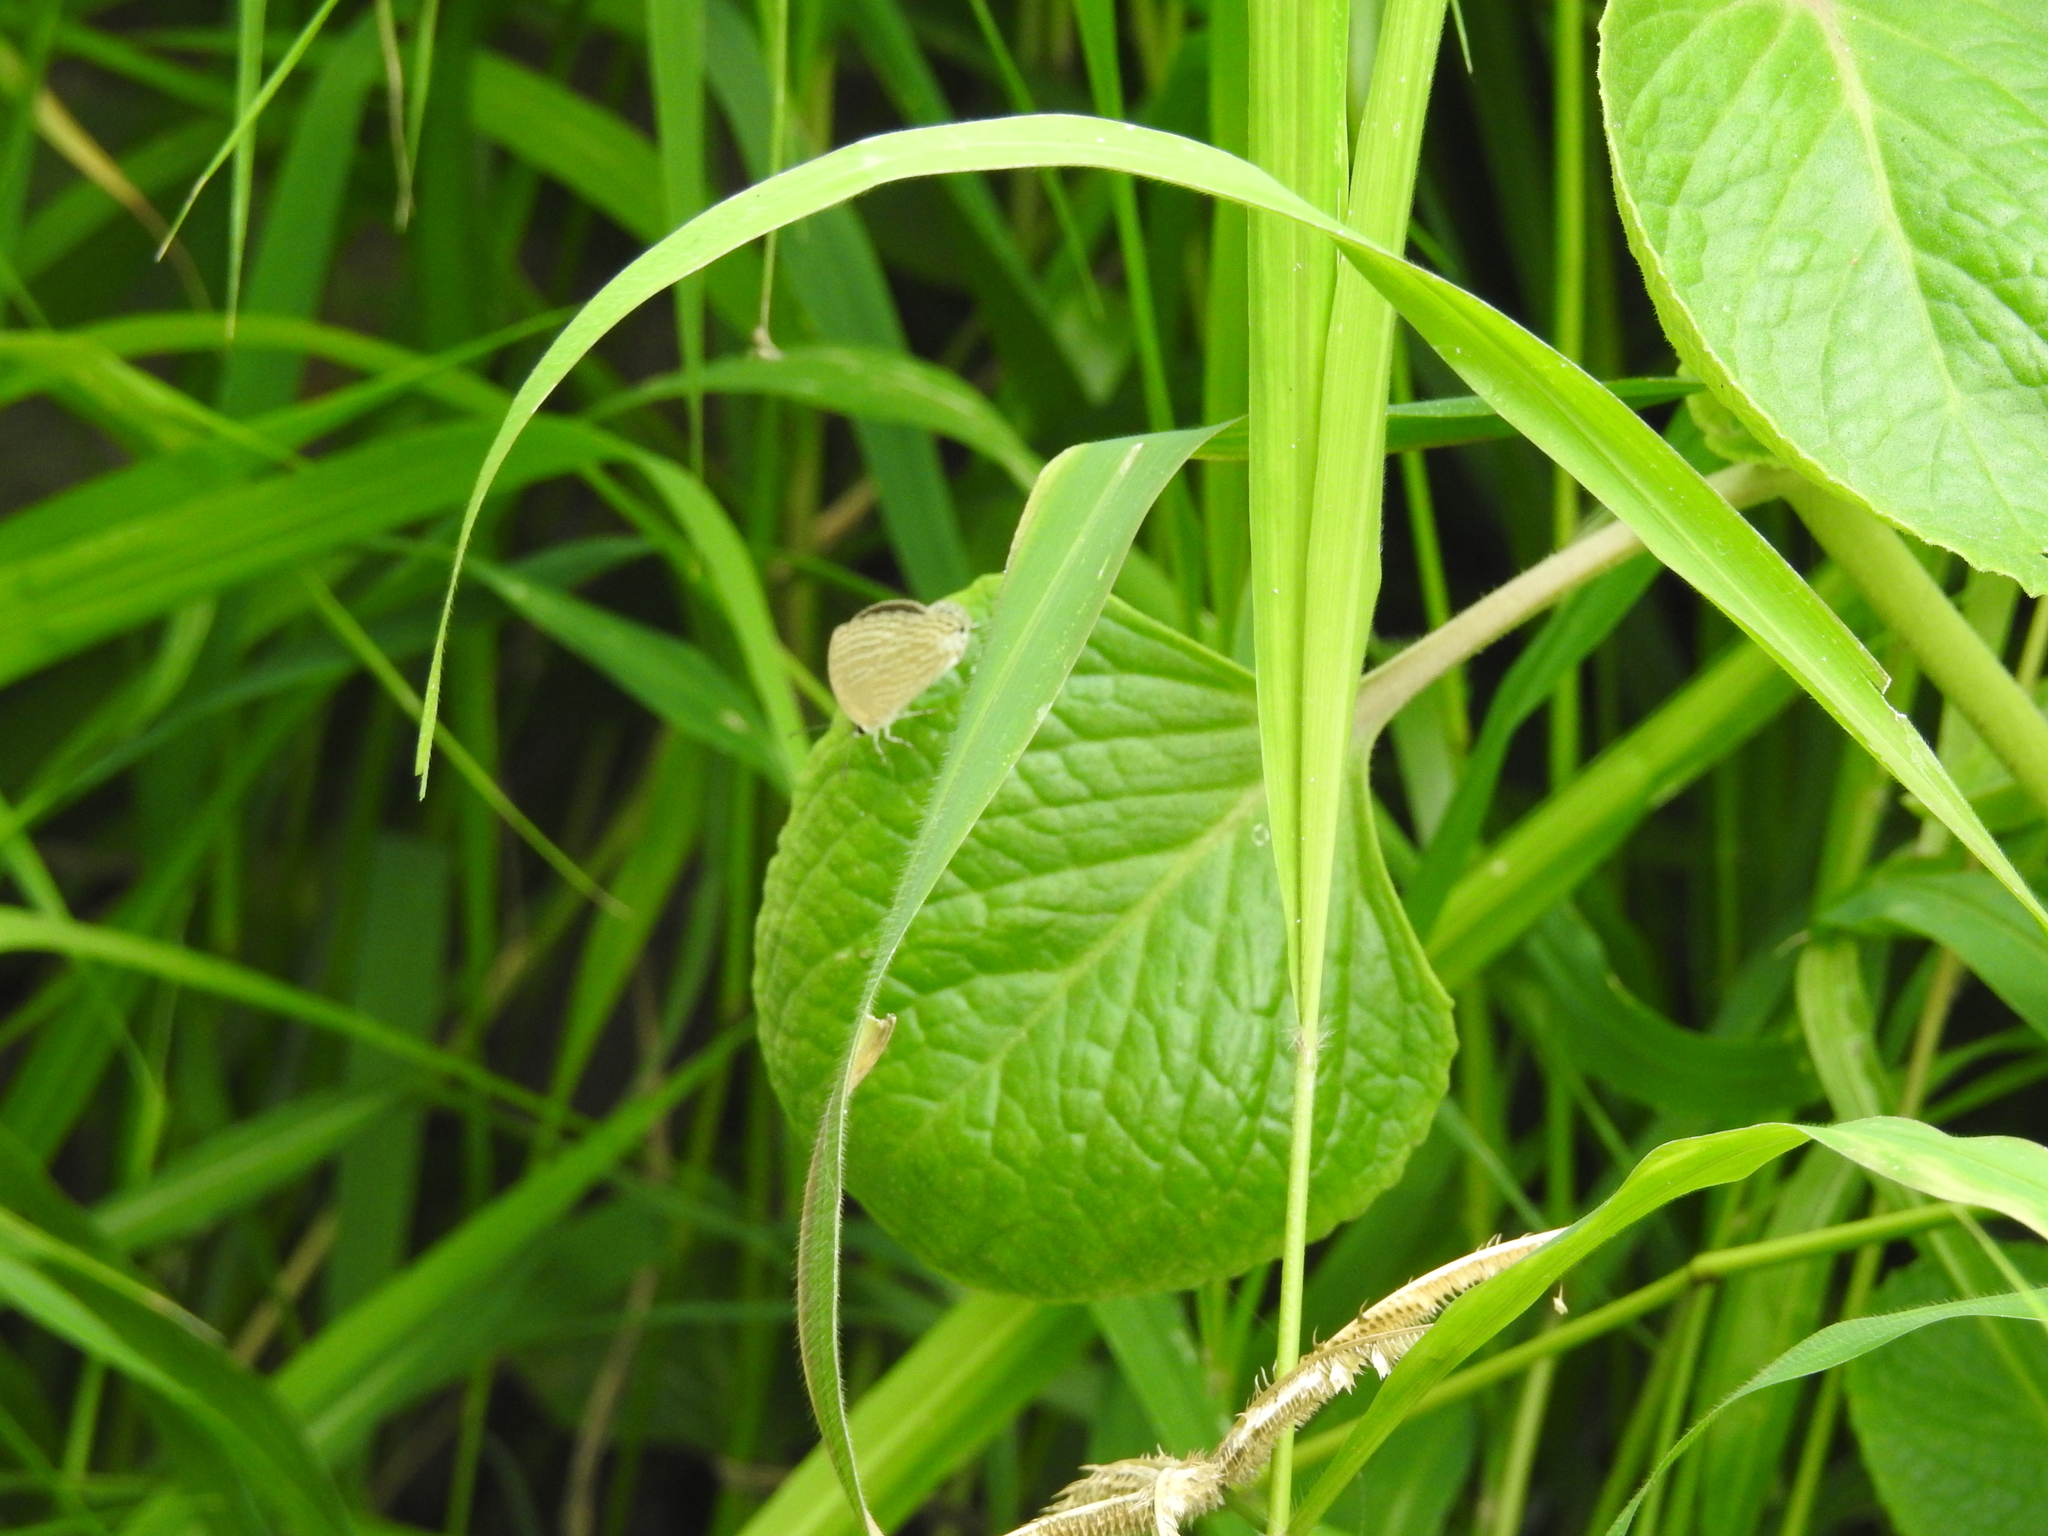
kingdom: Animalia
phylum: Arthropoda
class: Insecta
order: Lepidoptera
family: Lycaenidae
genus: Jamides
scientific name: Jamides celeno
